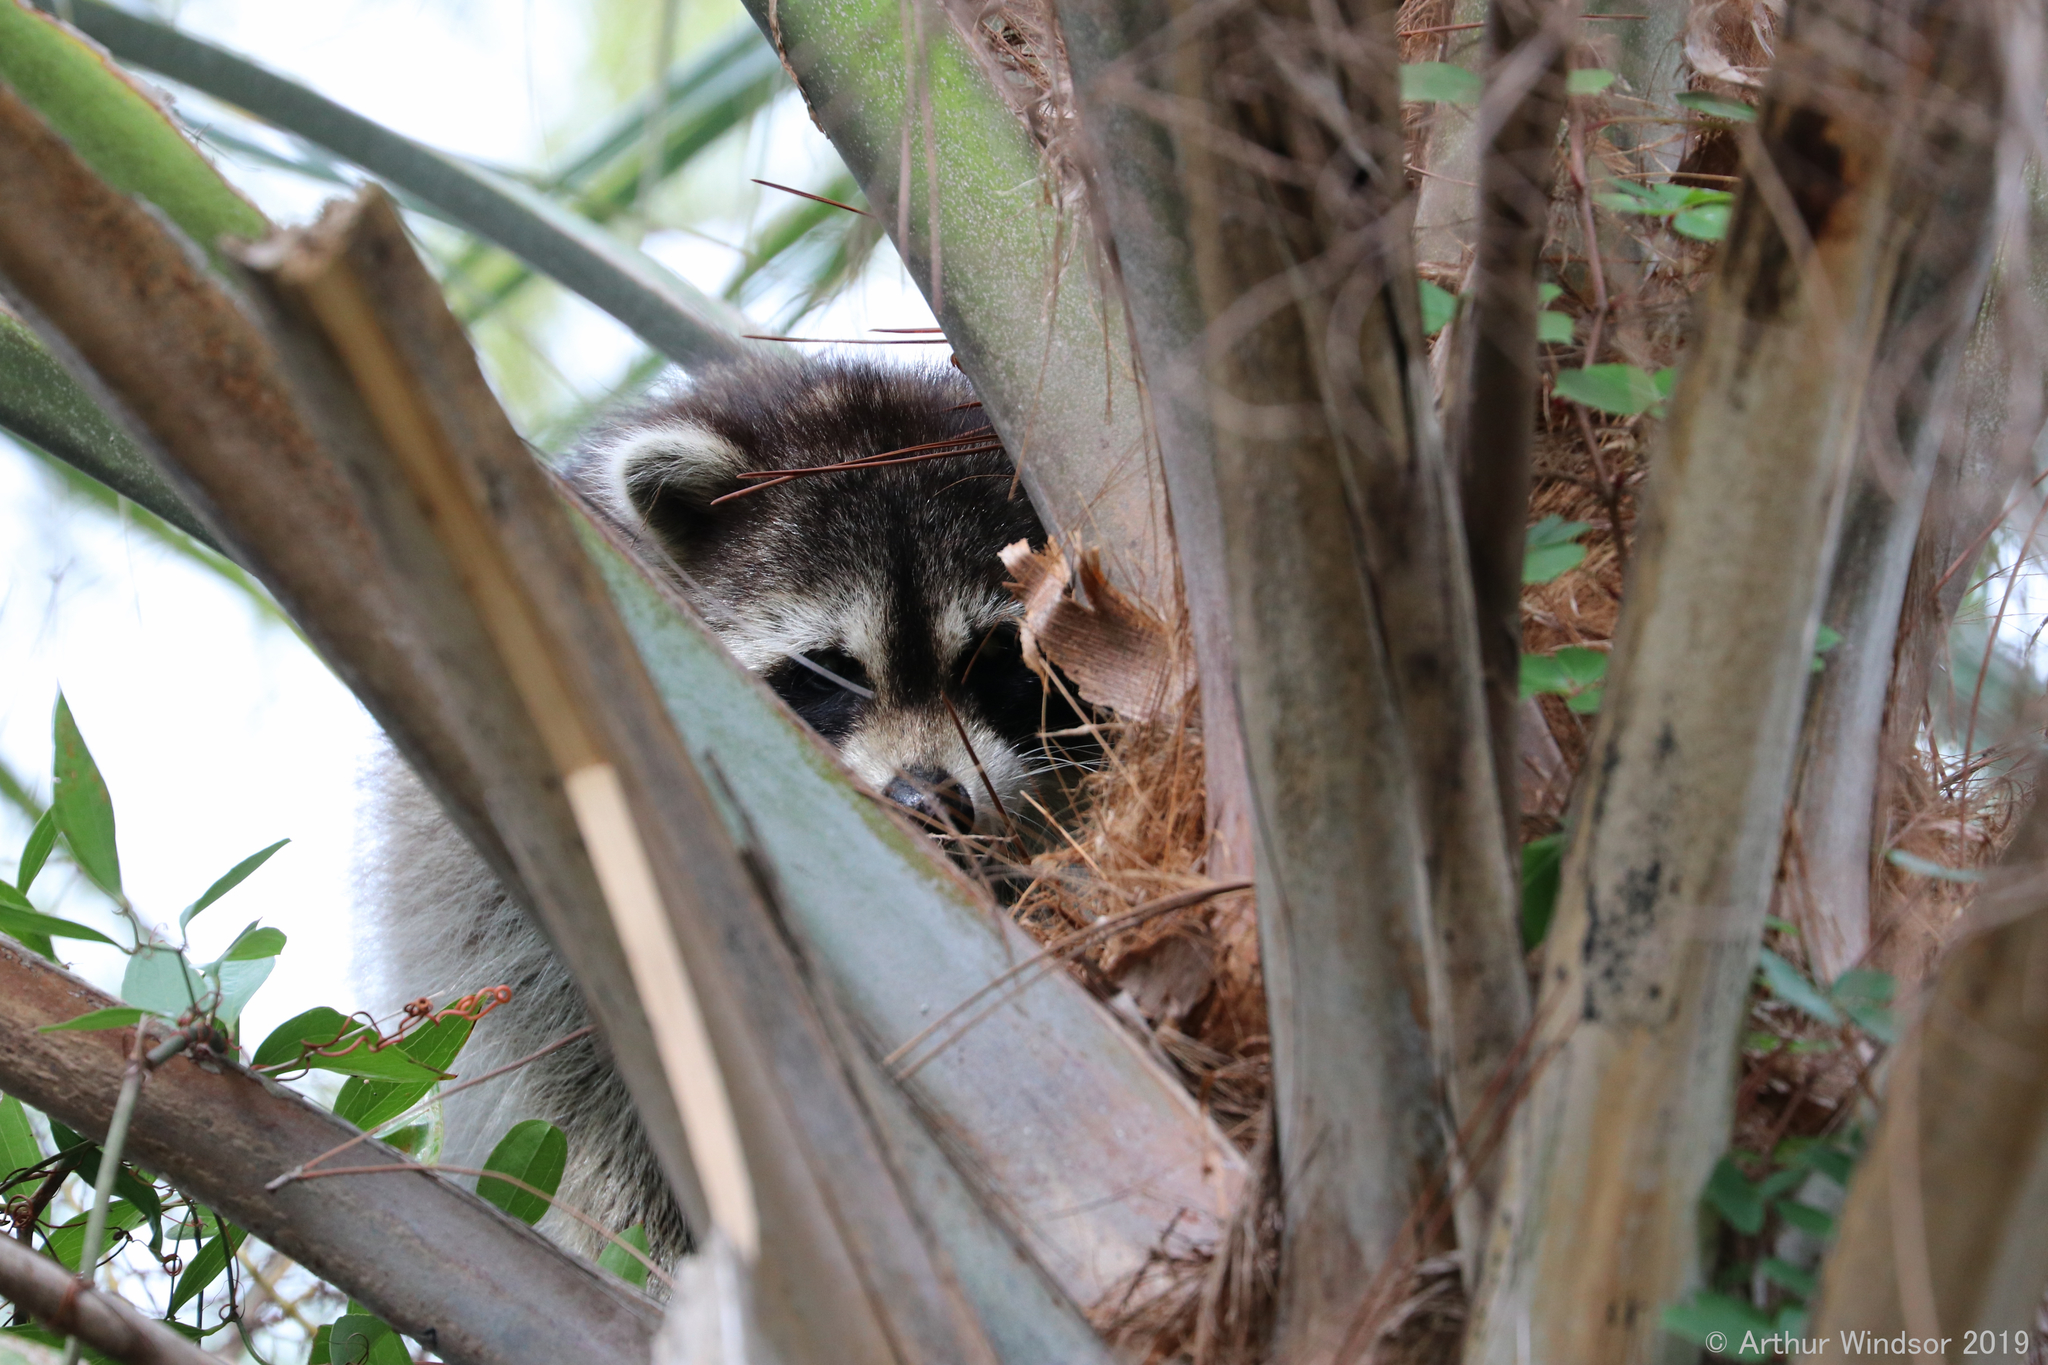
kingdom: Animalia
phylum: Chordata
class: Mammalia
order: Carnivora
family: Procyonidae
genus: Procyon
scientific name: Procyon lotor
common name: Raccoon
